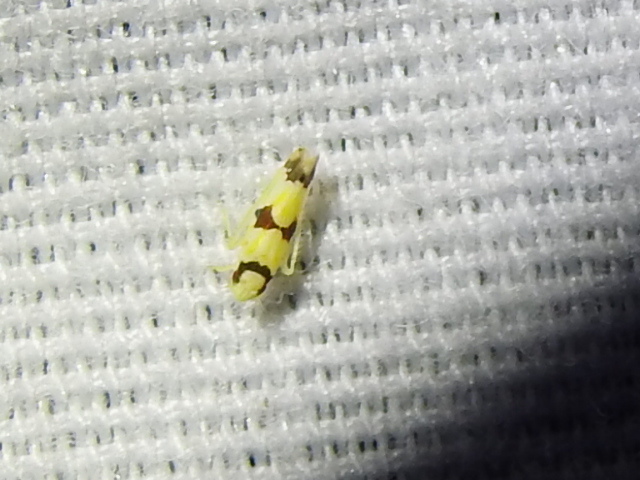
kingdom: Animalia
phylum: Arthropoda
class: Insecta
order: Hemiptera
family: Cicadellidae
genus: Erythroneura
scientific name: Erythroneura calycula
